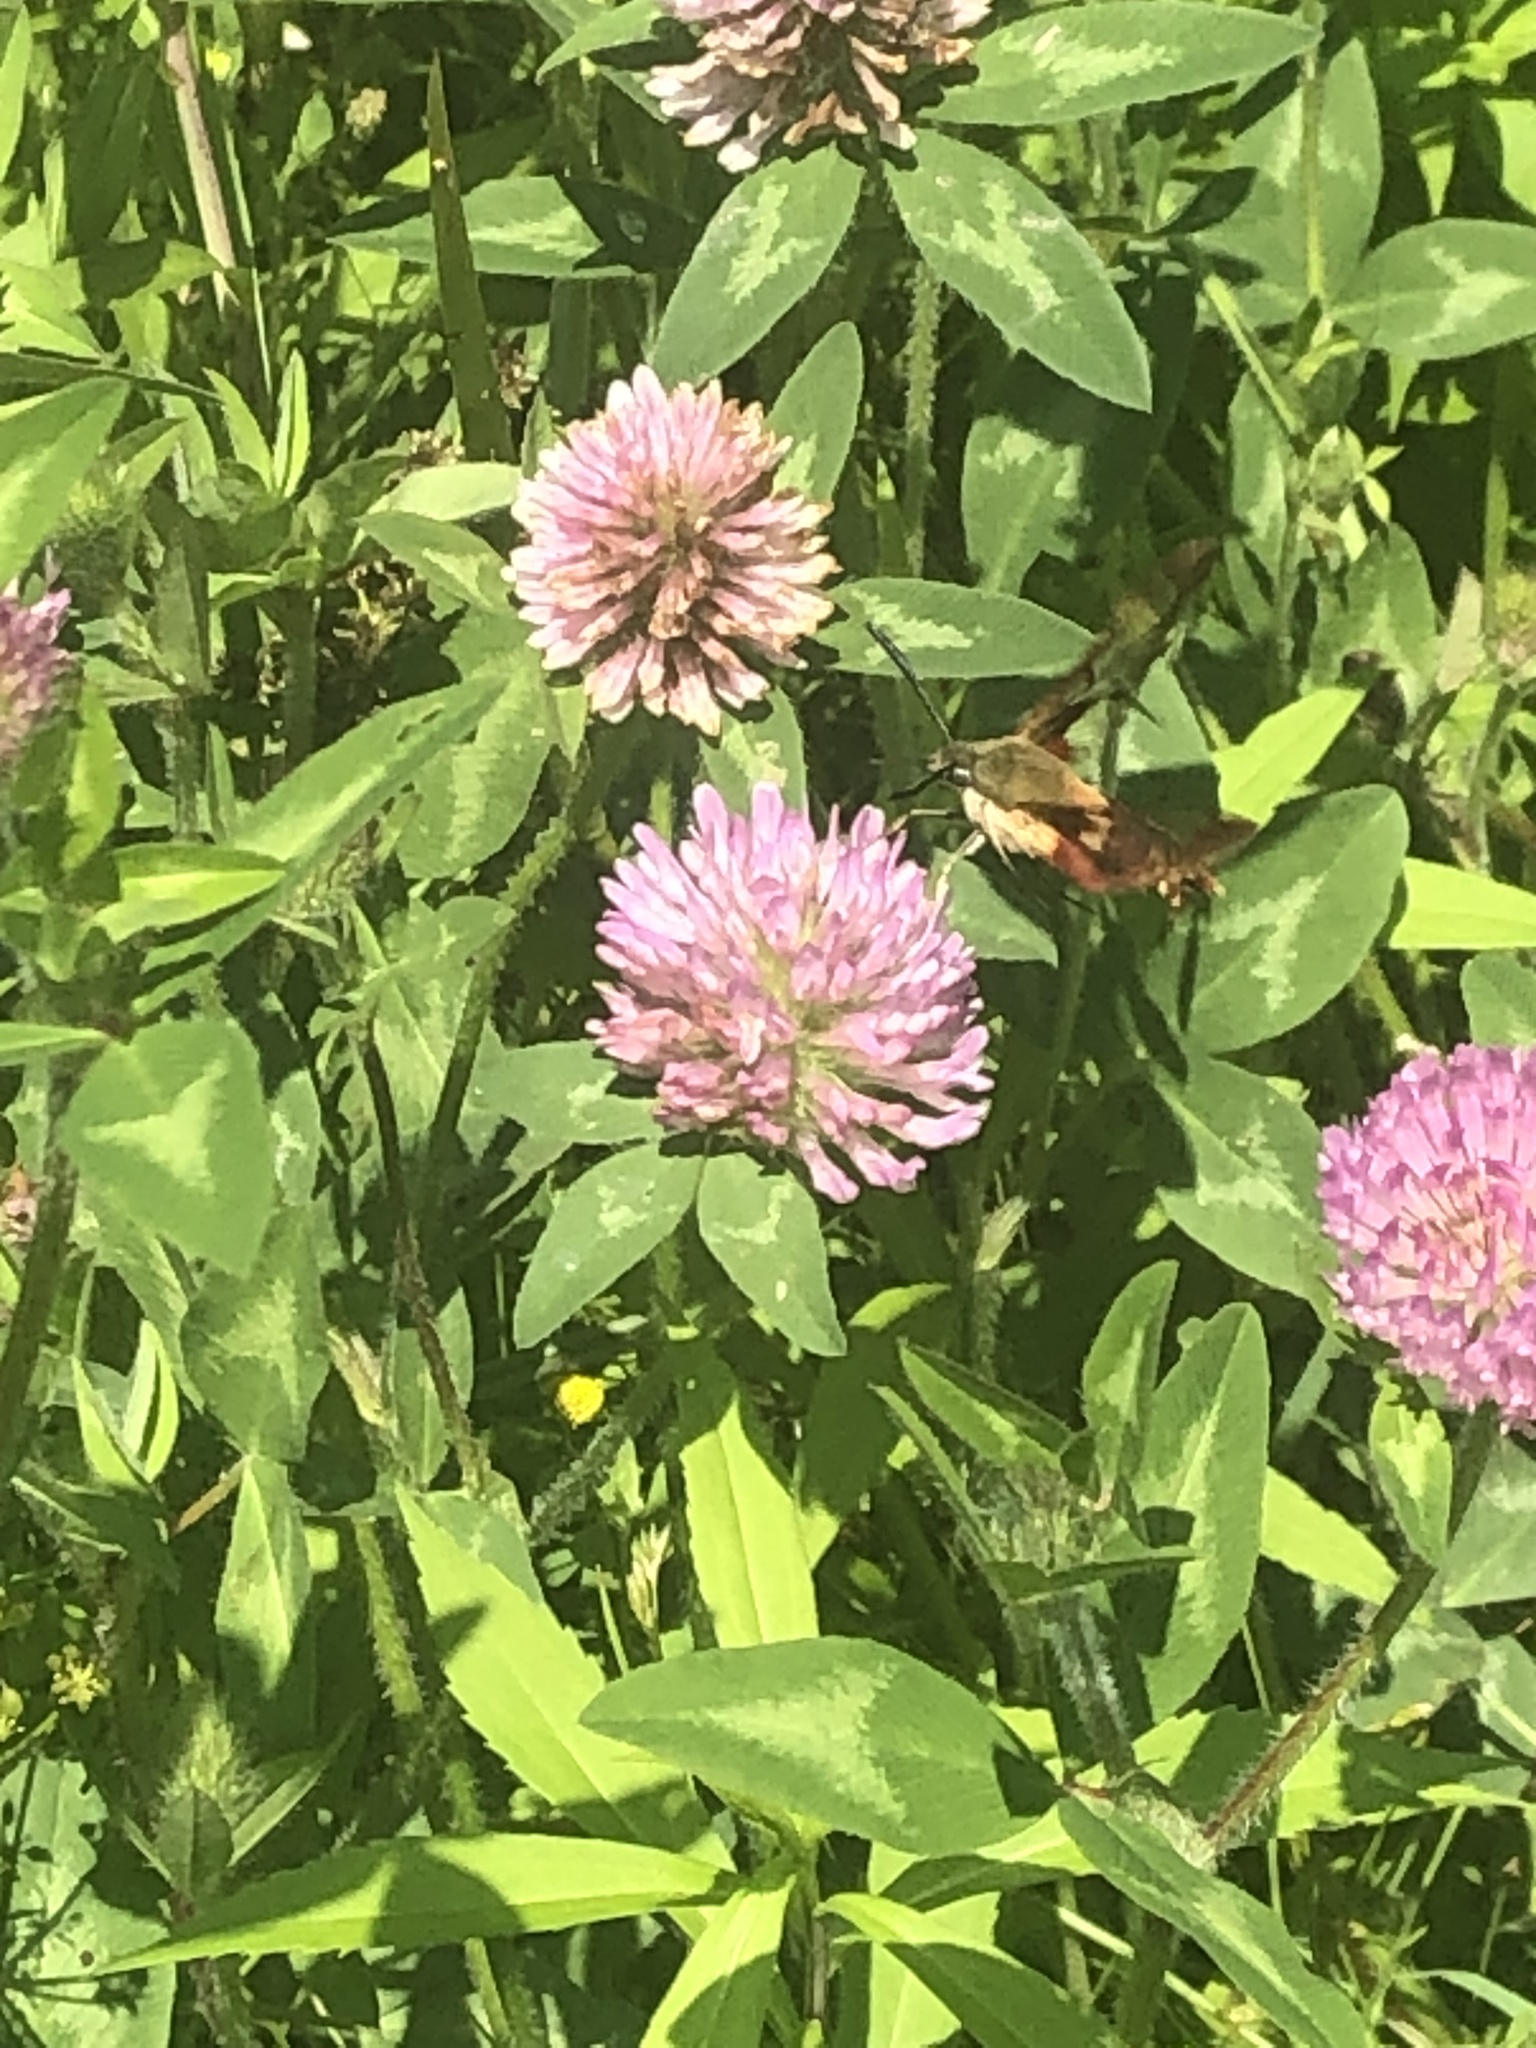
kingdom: Animalia
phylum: Arthropoda
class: Insecta
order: Lepidoptera
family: Sphingidae
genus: Hemaris
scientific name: Hemaris thysbe
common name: Common clear-wing
